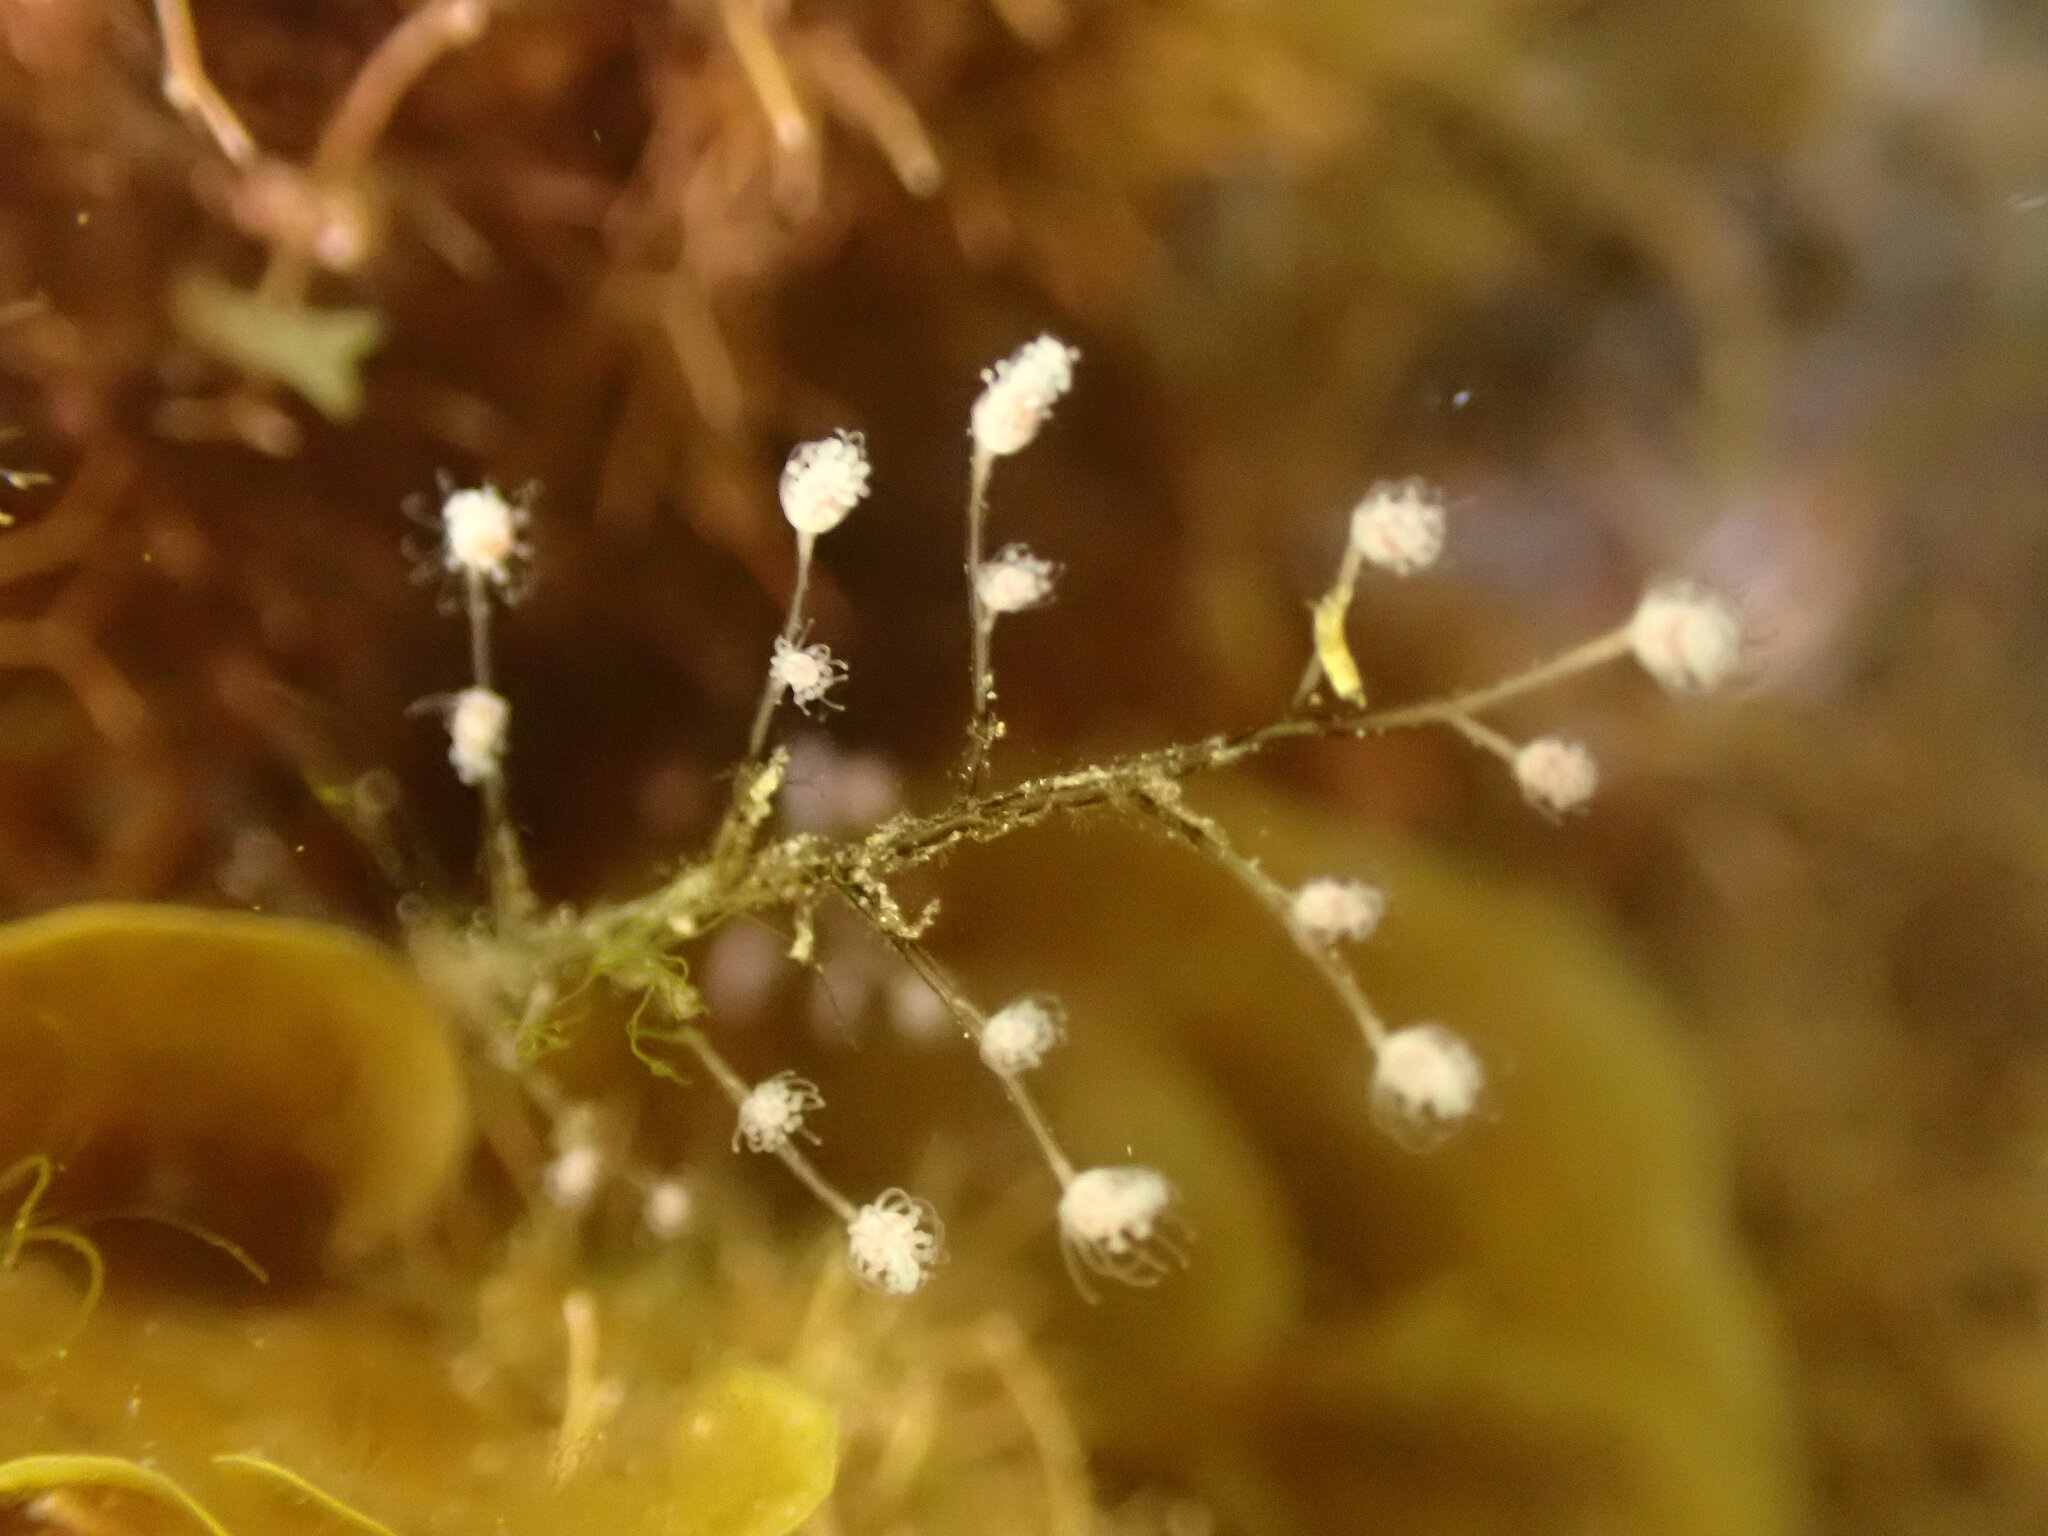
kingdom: Animalia
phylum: Cnidaria
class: Hydrozoa
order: Anthoathecata
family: Pennariidae
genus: Pennaria
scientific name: Pennaria disticha
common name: Feather hydroid
